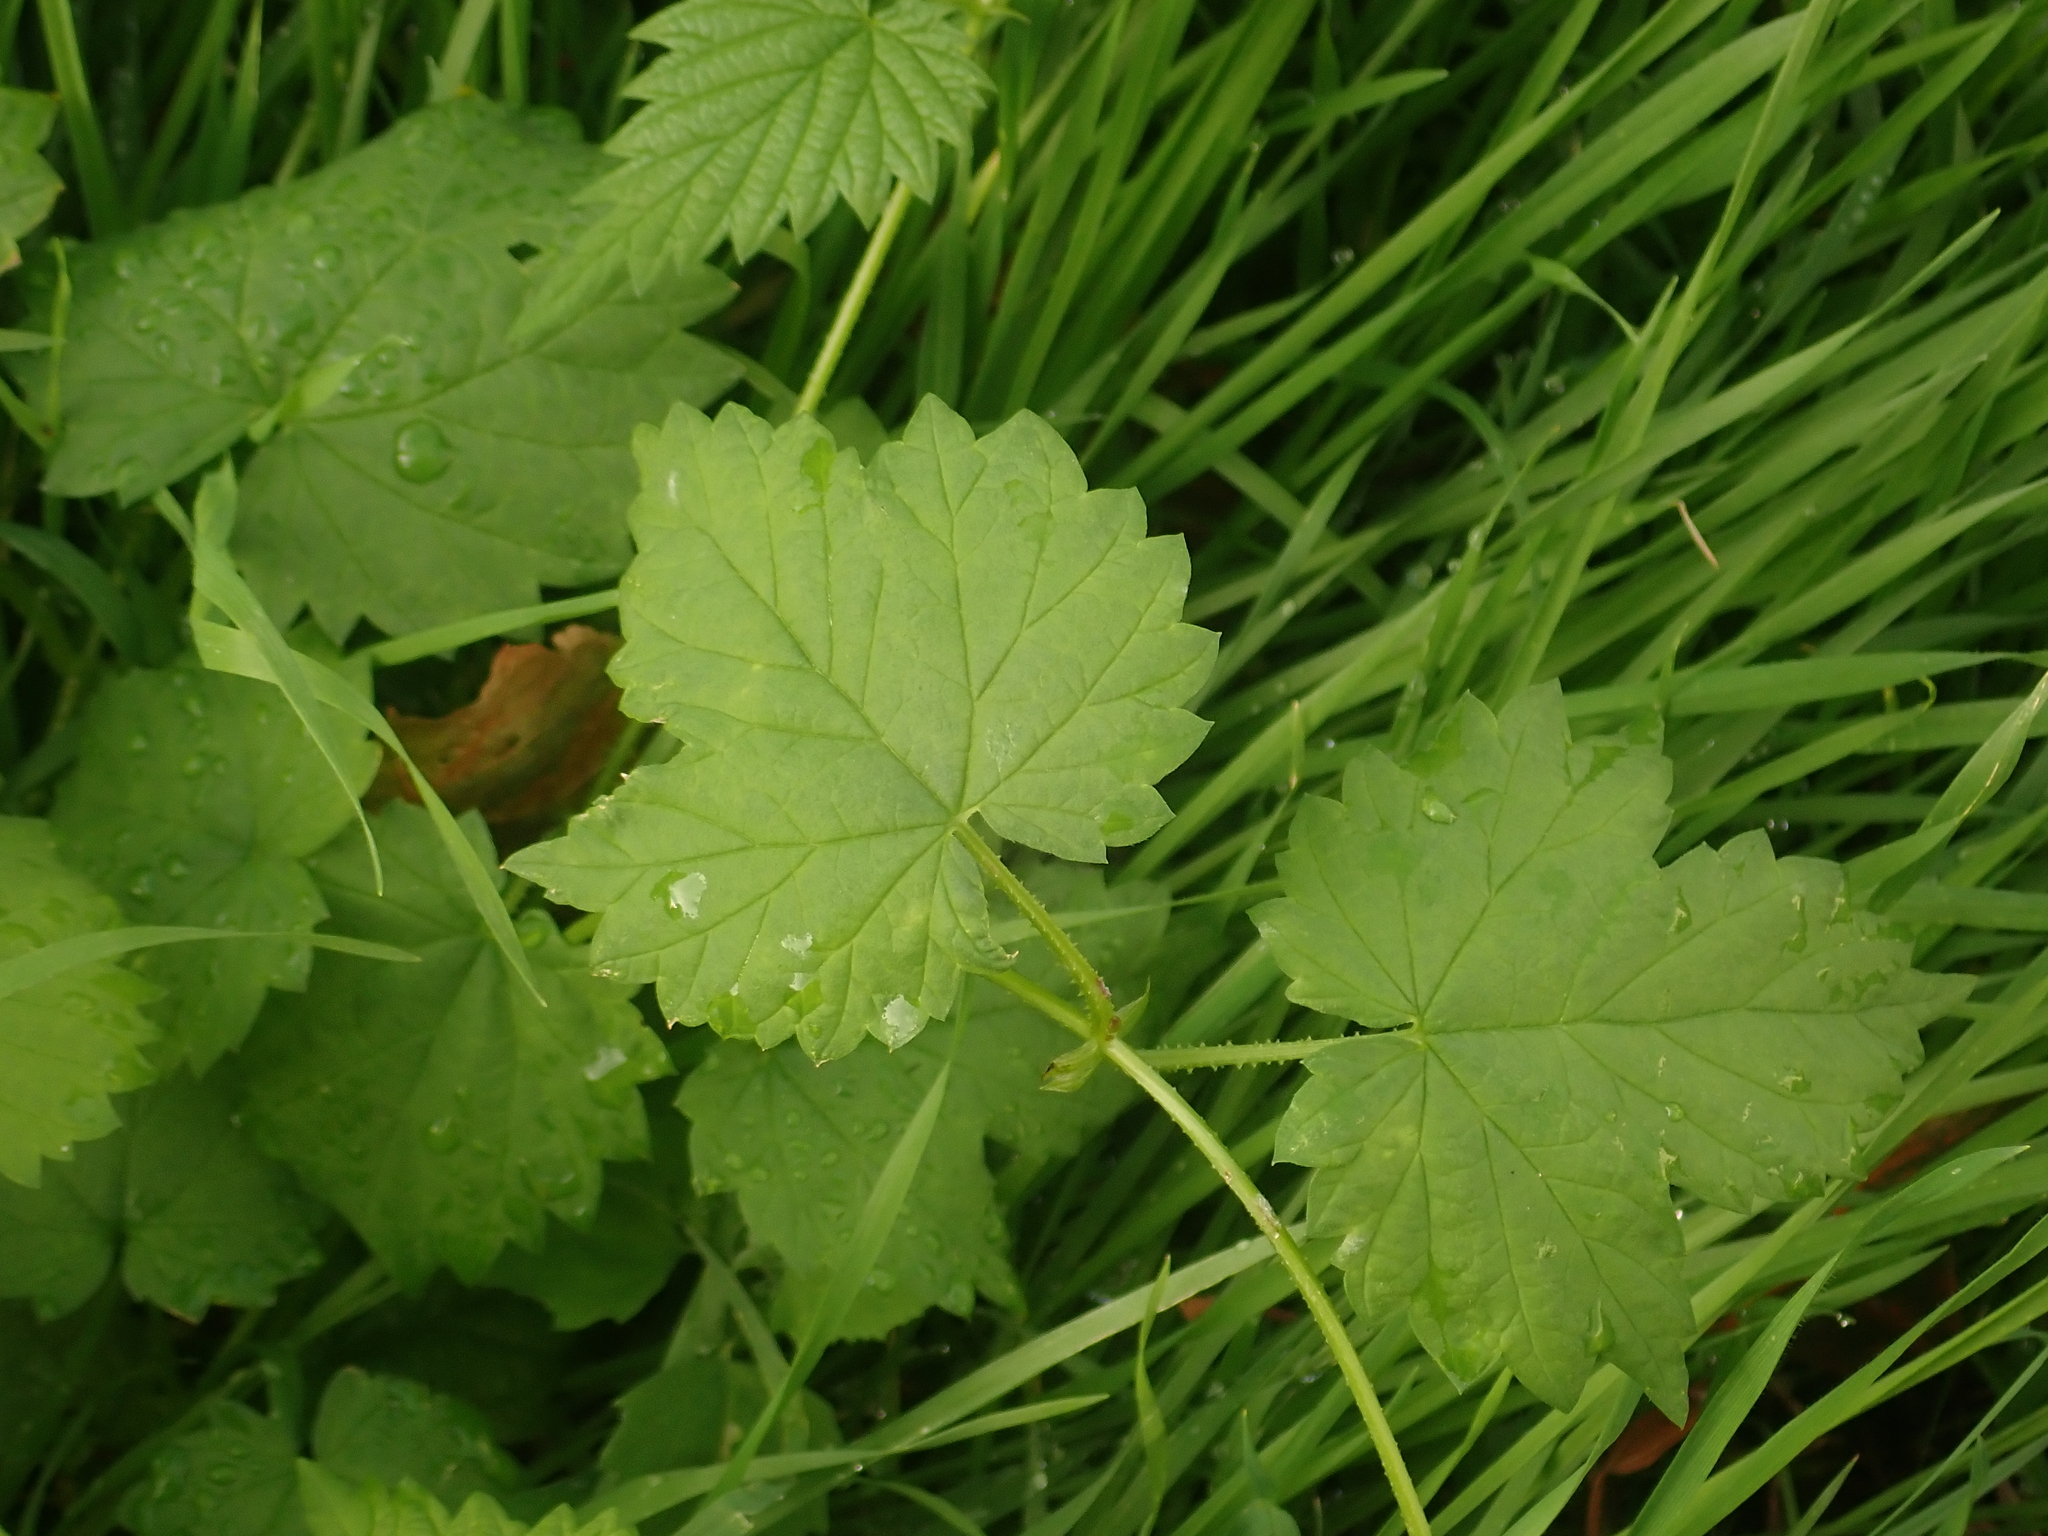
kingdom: Plantae
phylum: Tracheophyta
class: Magnoliopsida
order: Rosales
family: Cannabaceae
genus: Humulus
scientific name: Humulus lupulus
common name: Hop
